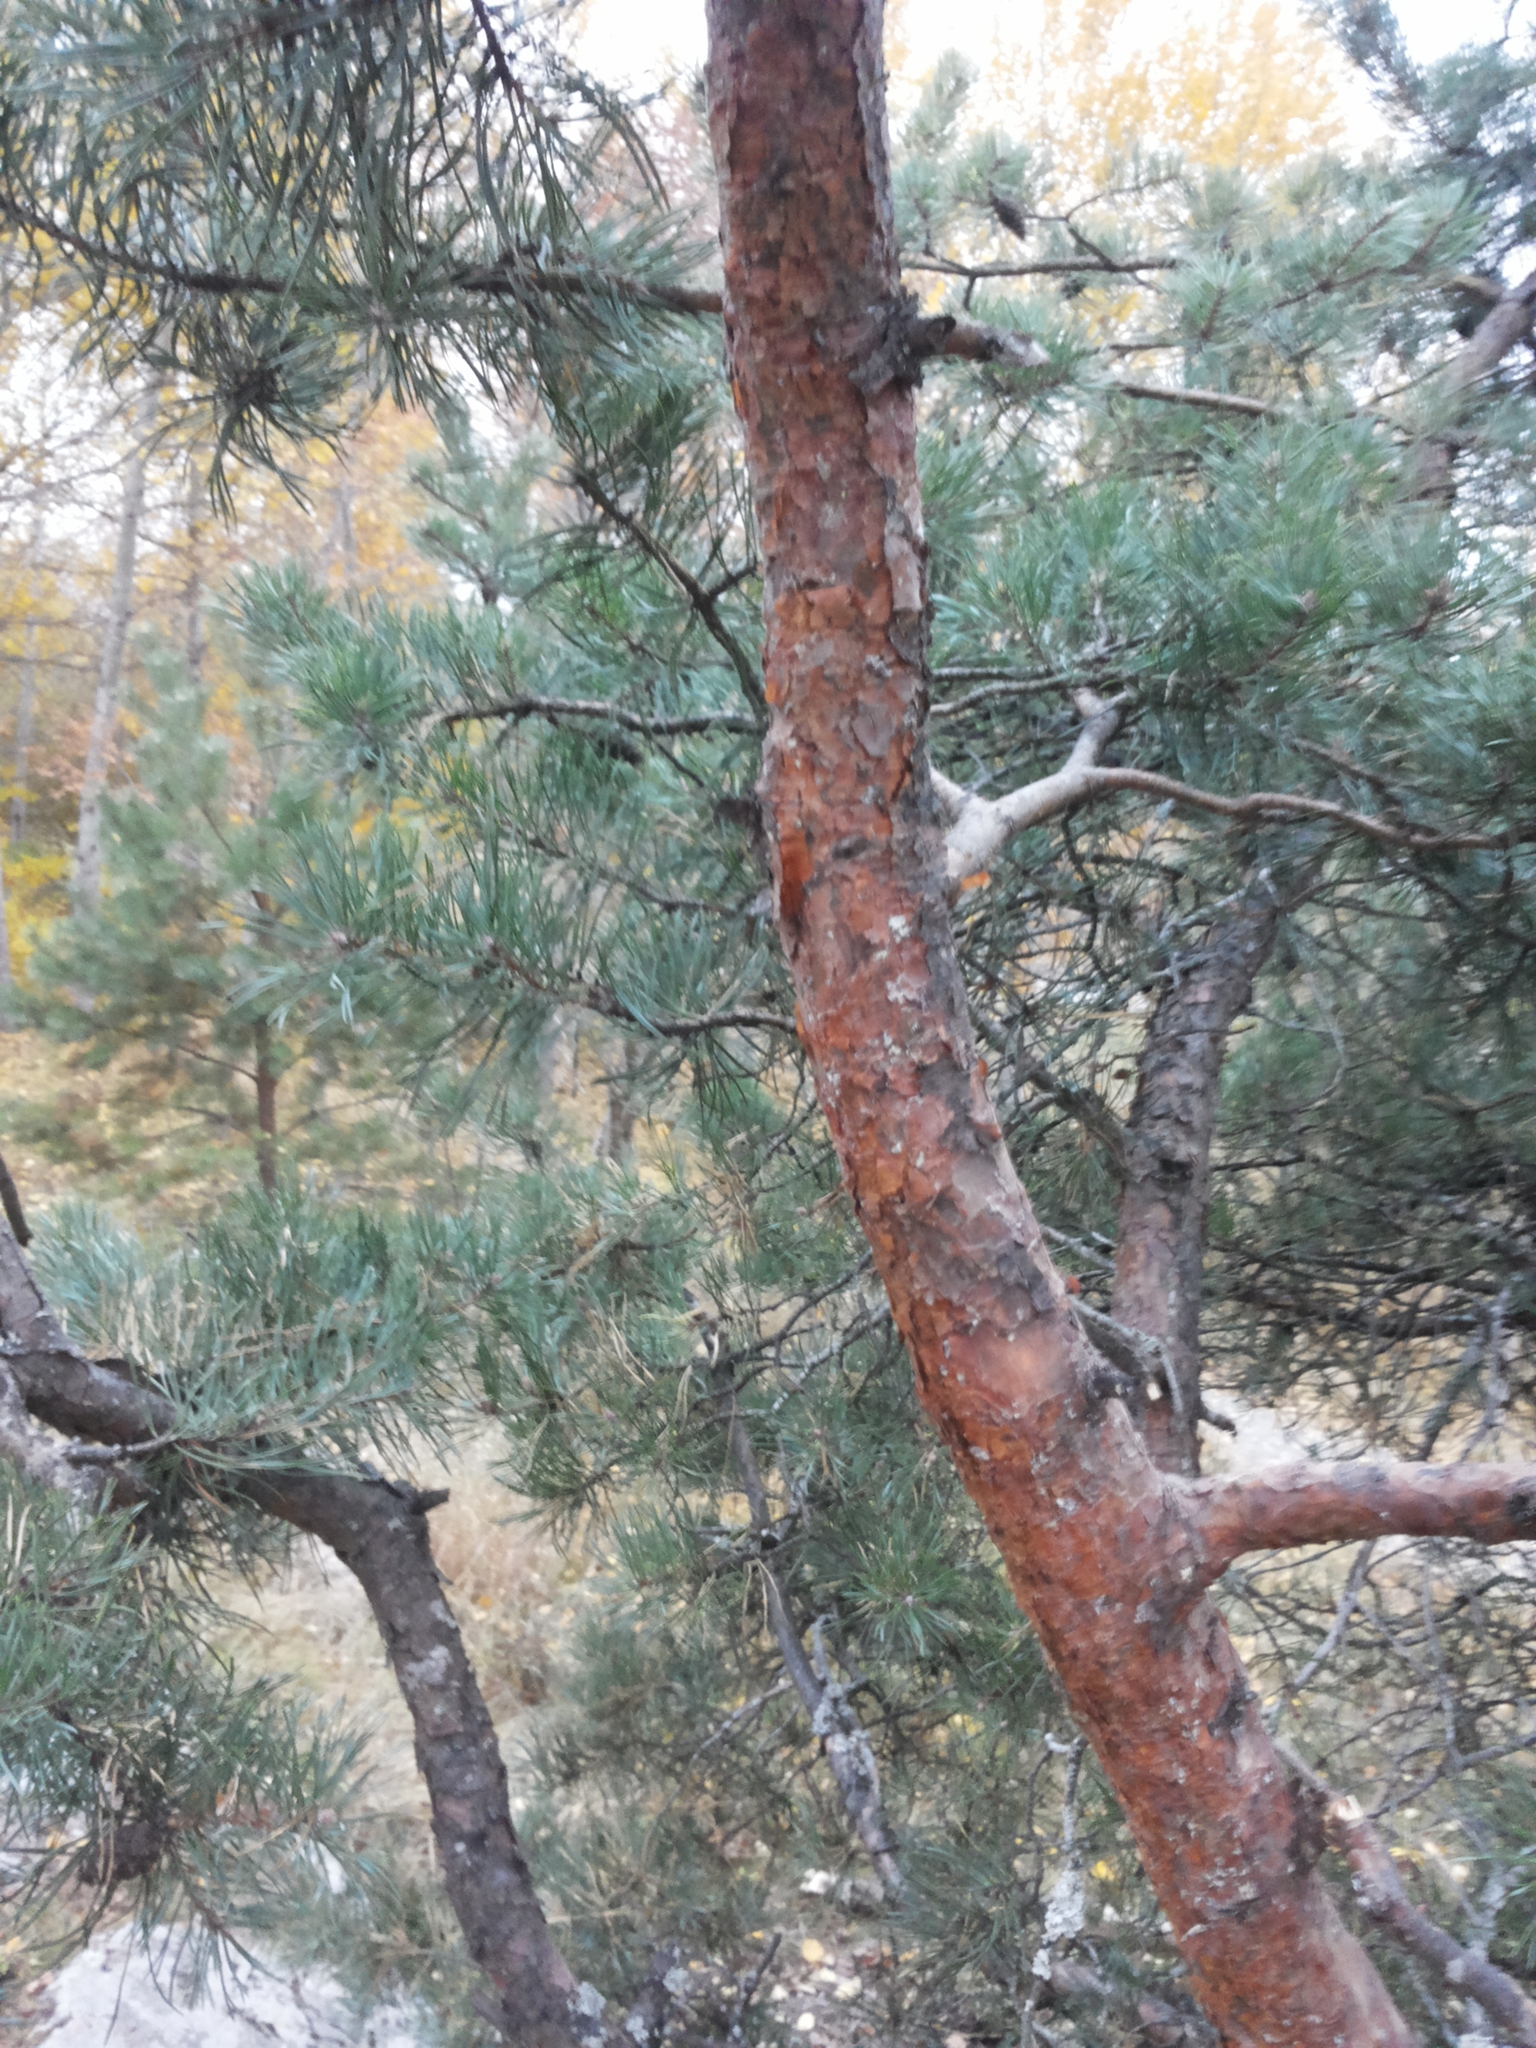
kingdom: Plantae
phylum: Tracheophyta
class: Pinopsida
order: Pinales
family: Pinaceae
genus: Pinus
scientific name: Pinus sylvestris
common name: Scots pine
